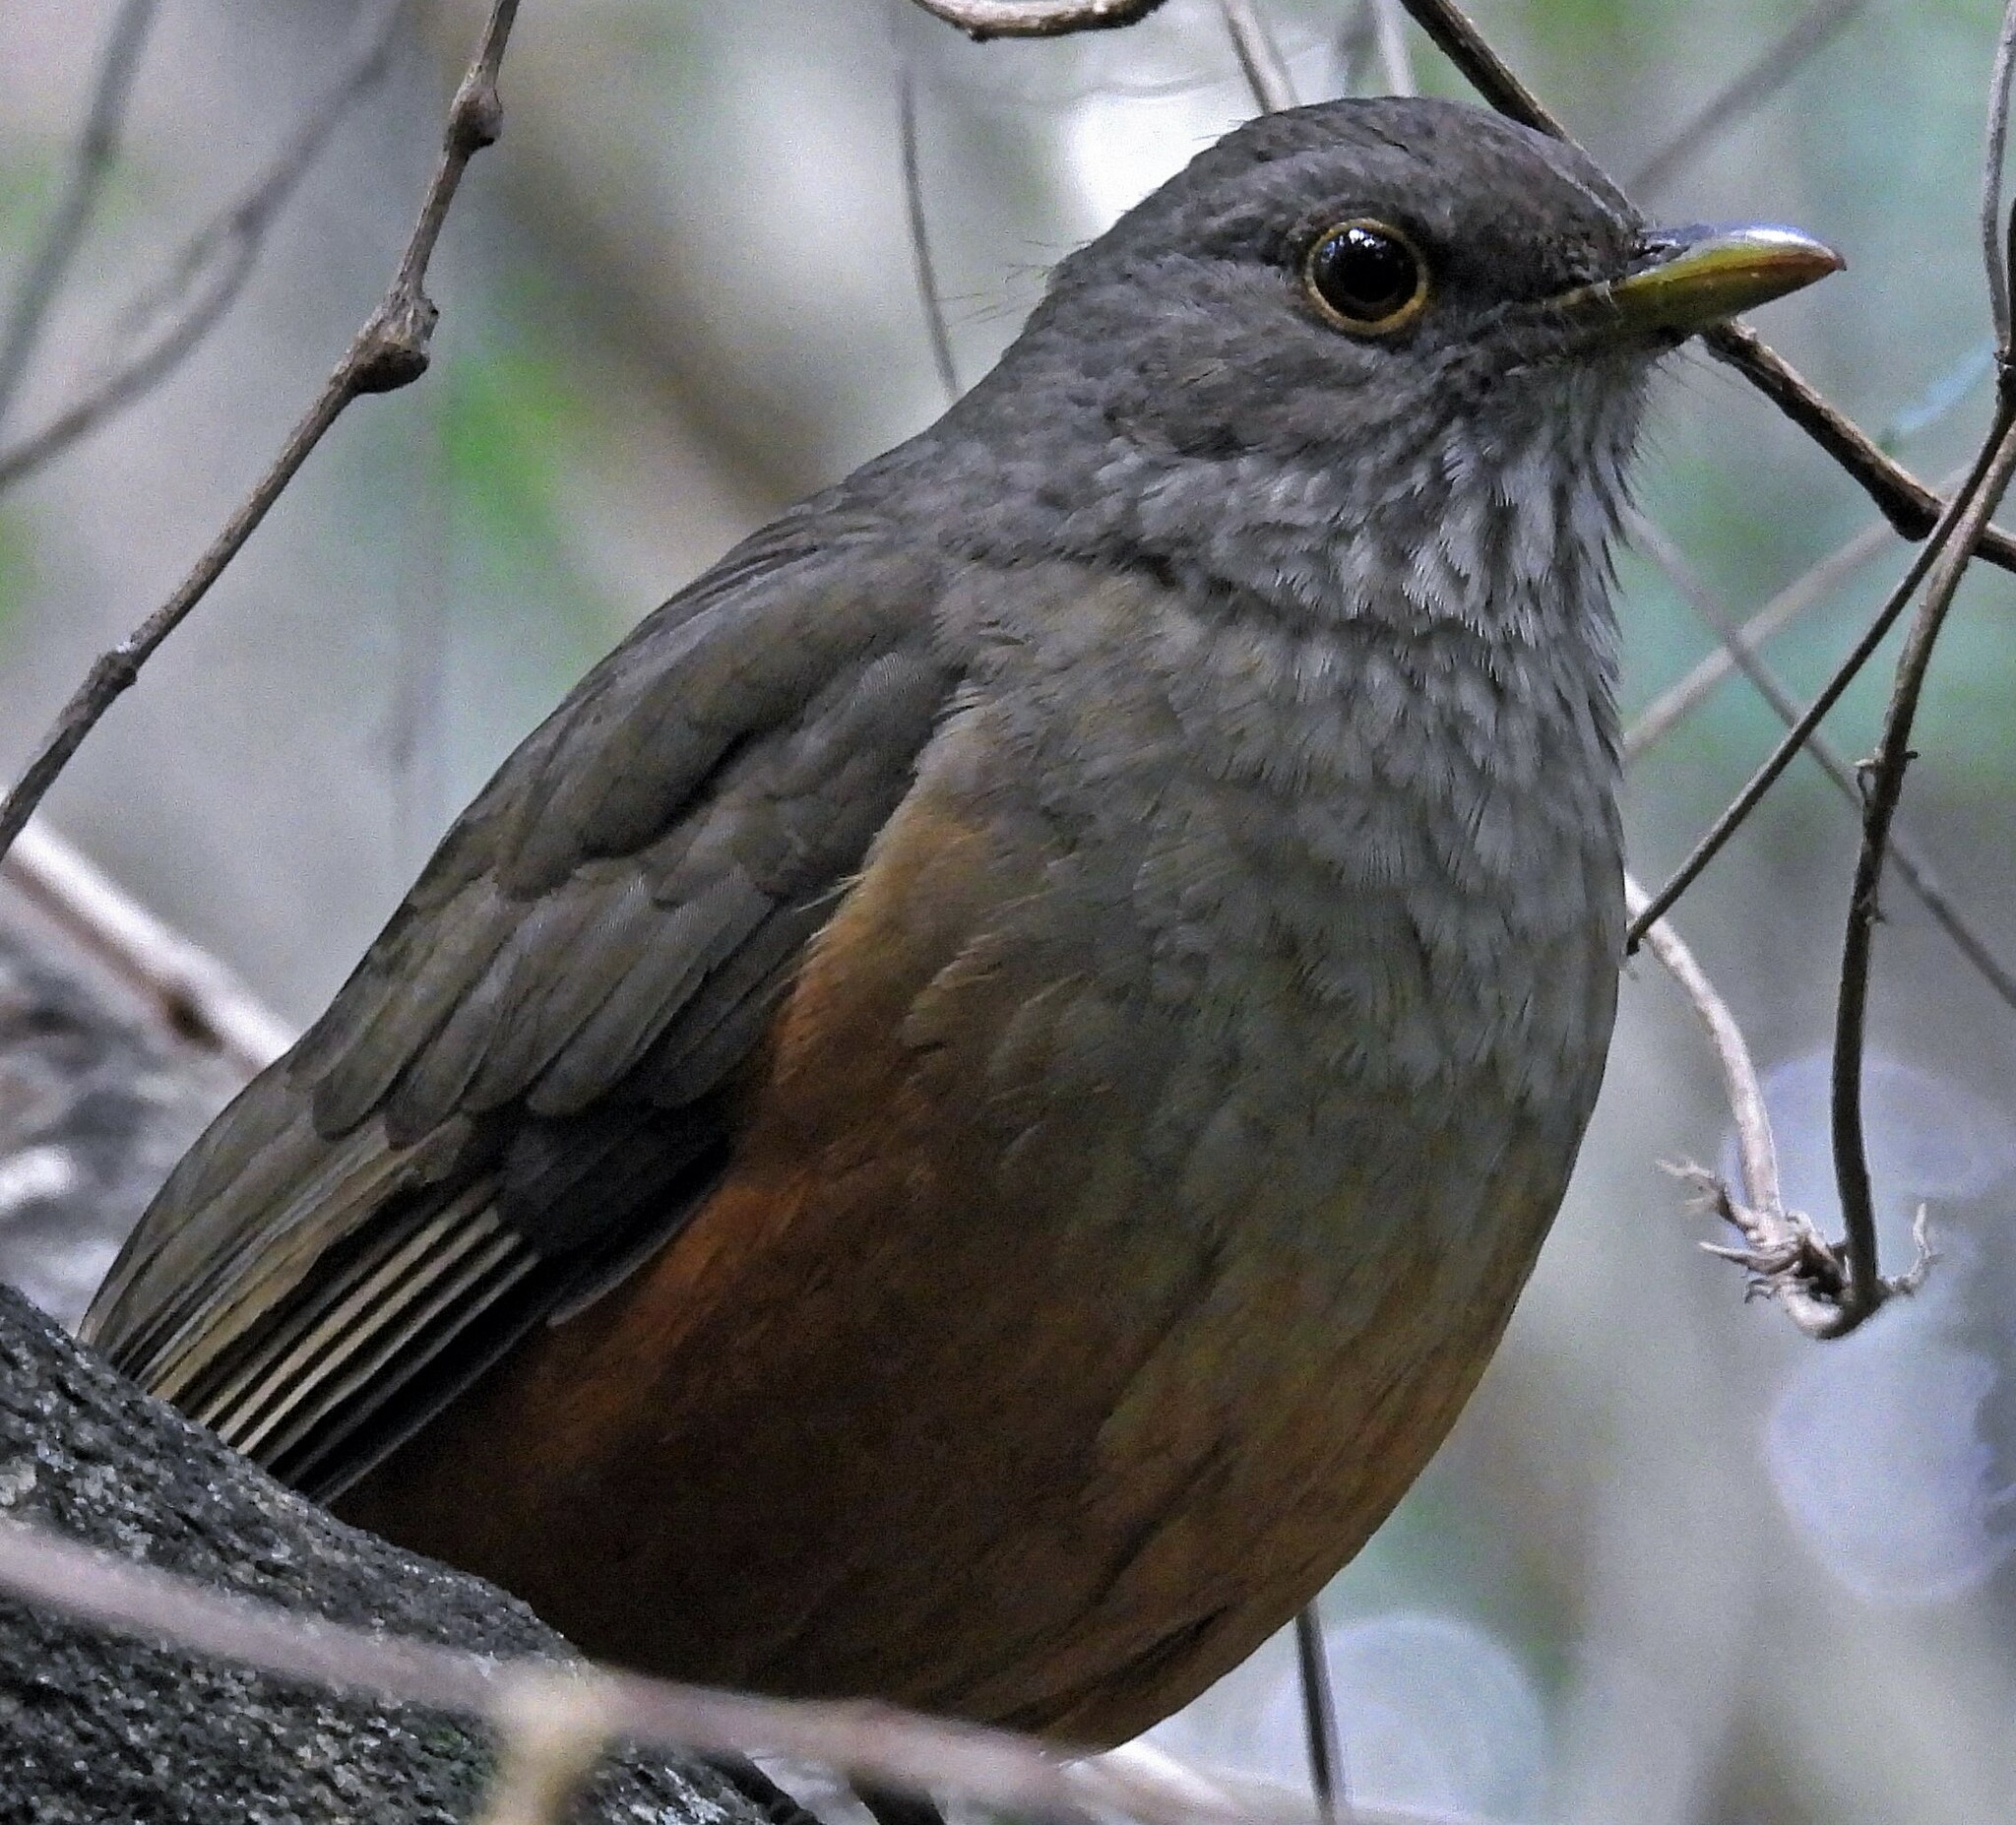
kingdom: Animalia
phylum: Chordata
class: Aves
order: Passeriformes
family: Turdidae
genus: Turdus
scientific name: Turdus rufiventris
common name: Rufous-bellied thrush
